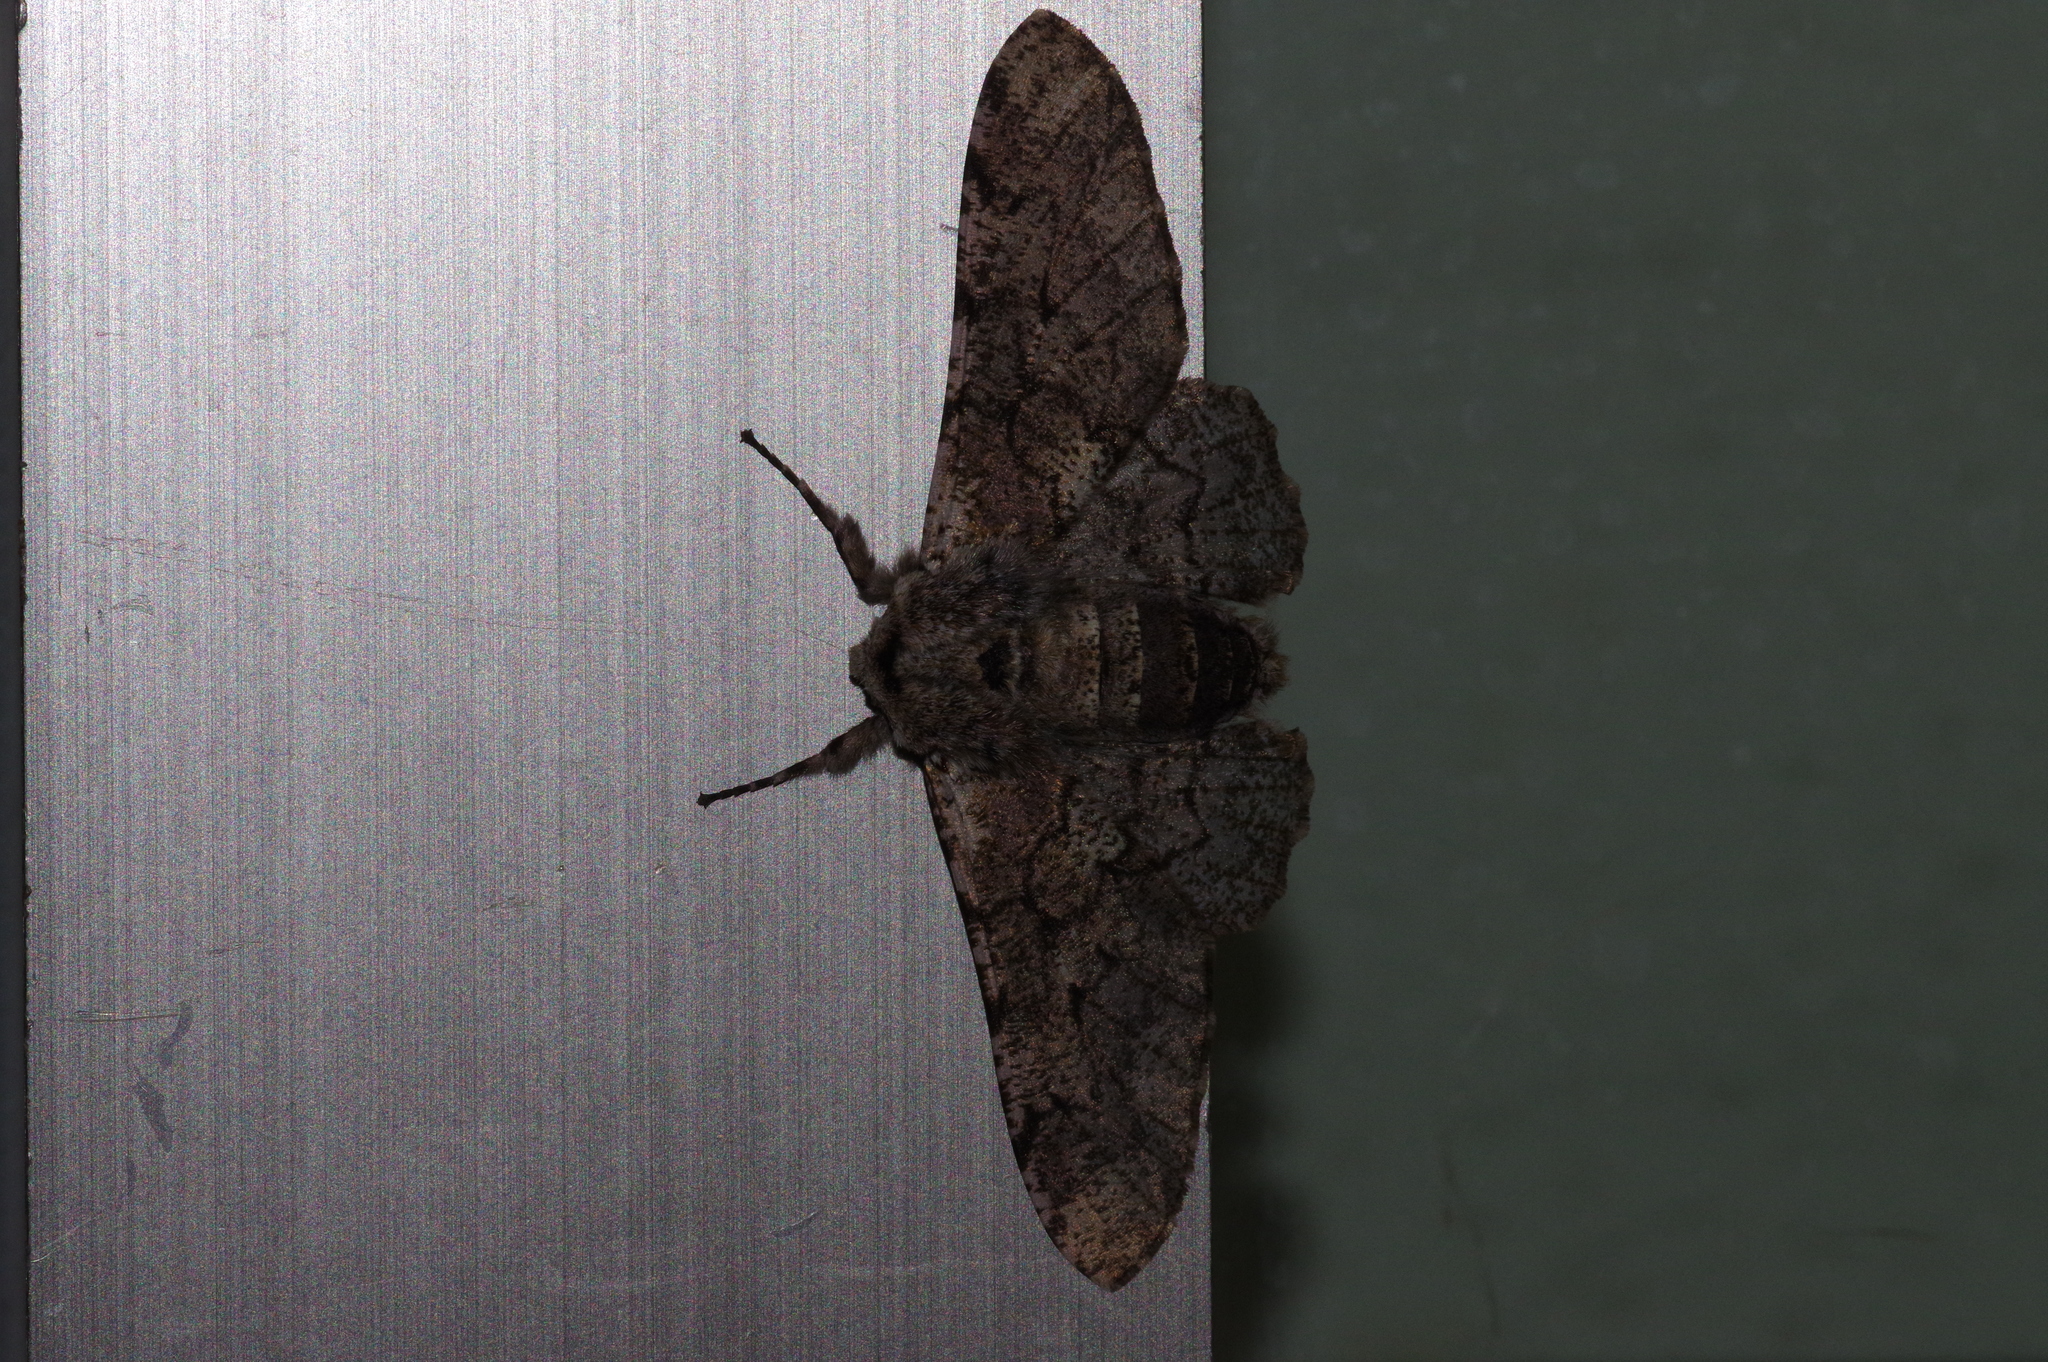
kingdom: Animalia
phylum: Arthropoda
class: Insecta
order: Lepidoptera
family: Geometridae
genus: Biston
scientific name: Biston robustum
